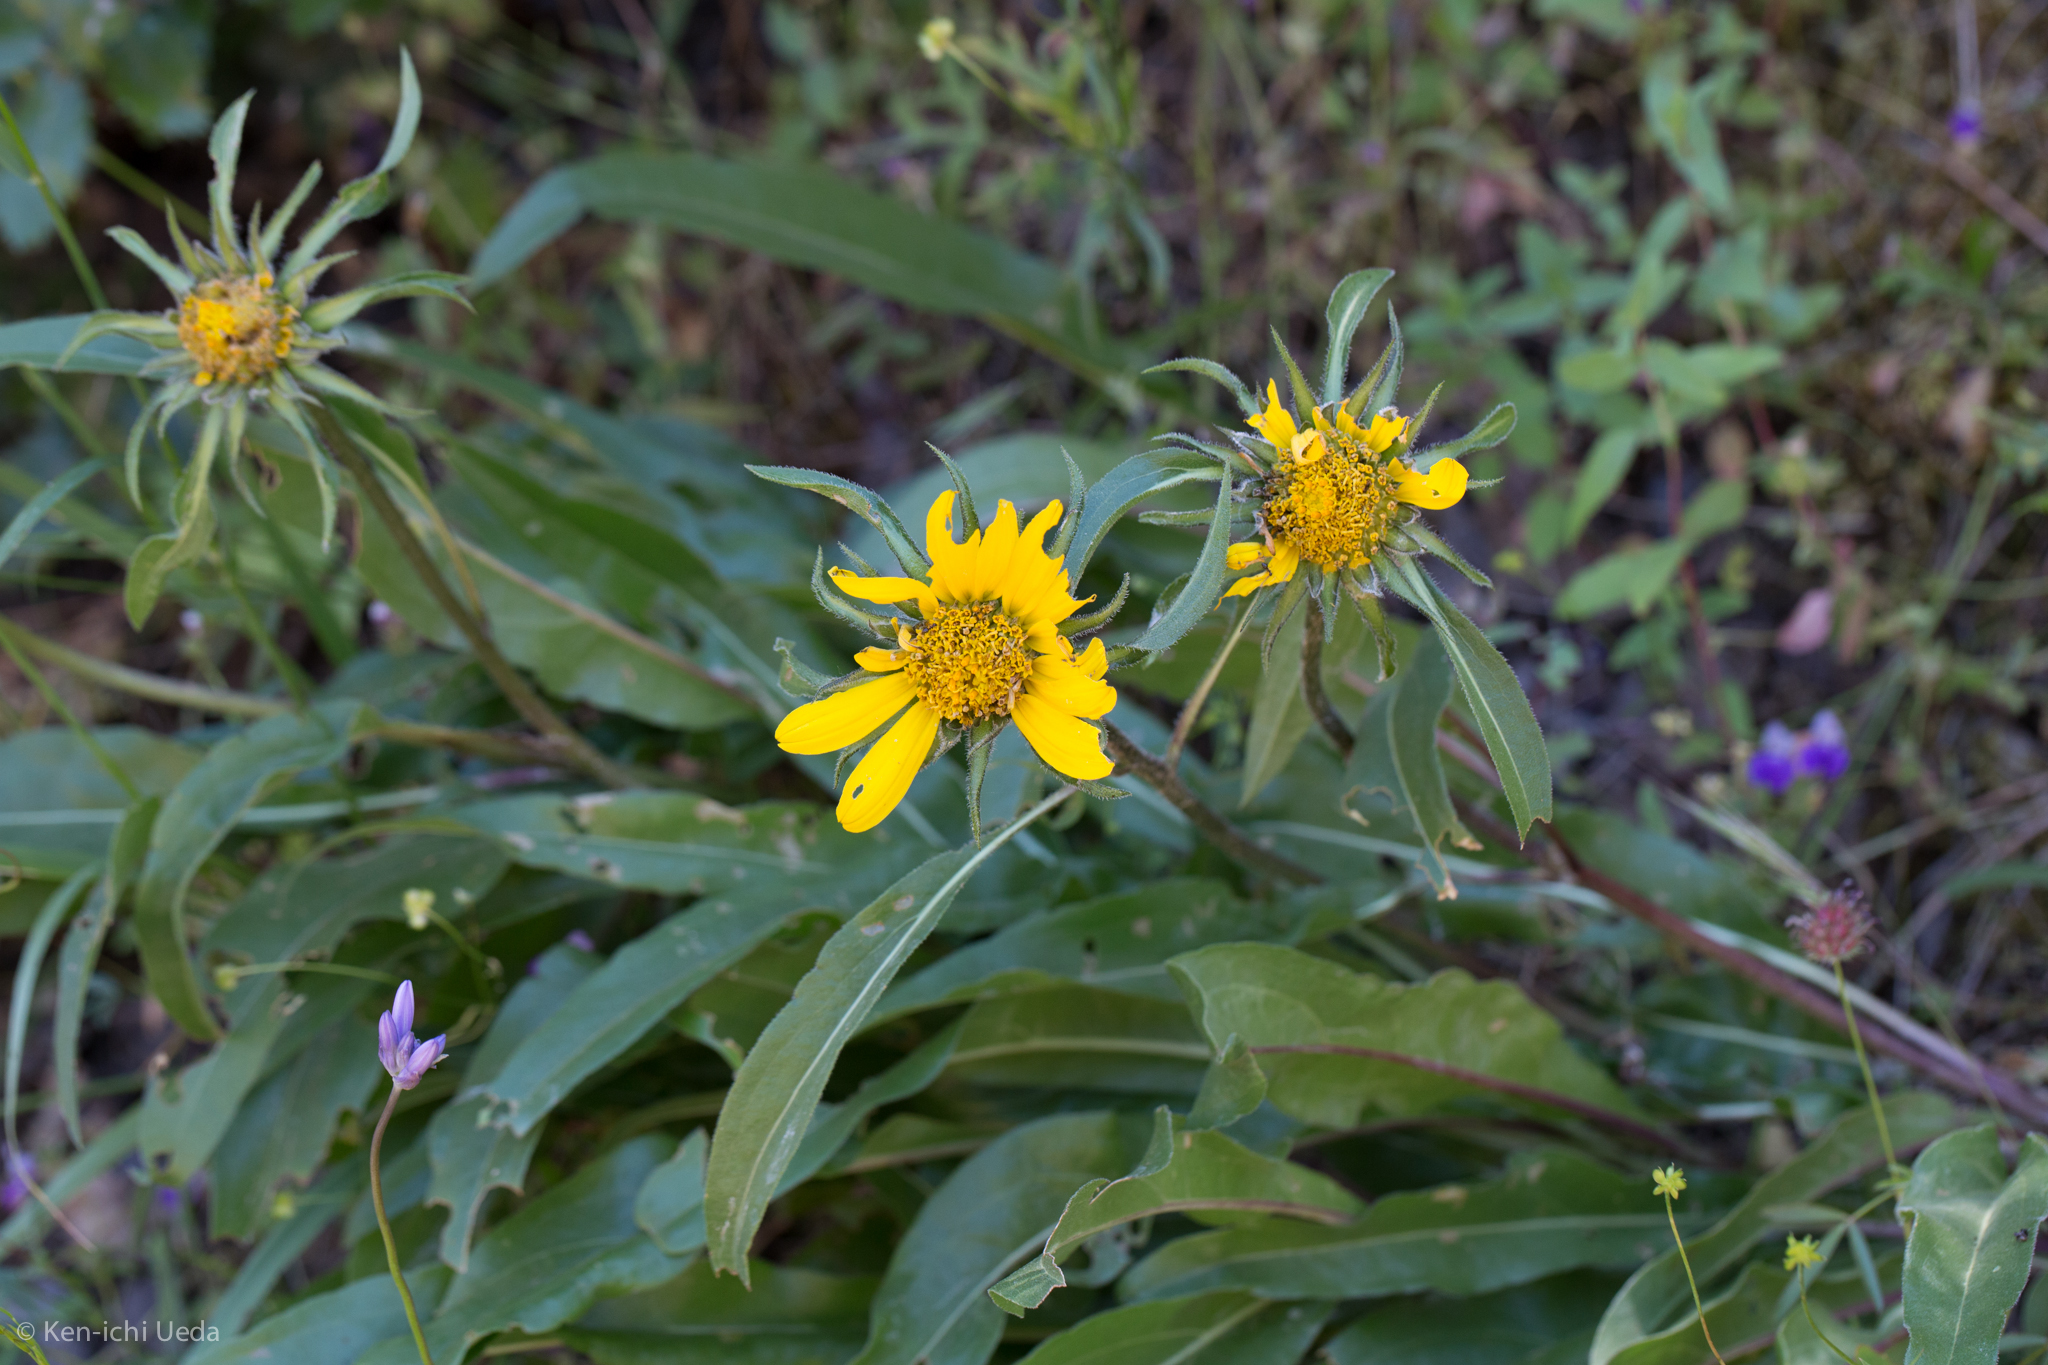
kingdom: Plantae
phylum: Tracheophyta
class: Magnoliopsida
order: Asterales
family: Asteraceae
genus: Helianthella
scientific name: Helianthella castanea
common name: Diablo helianthella
